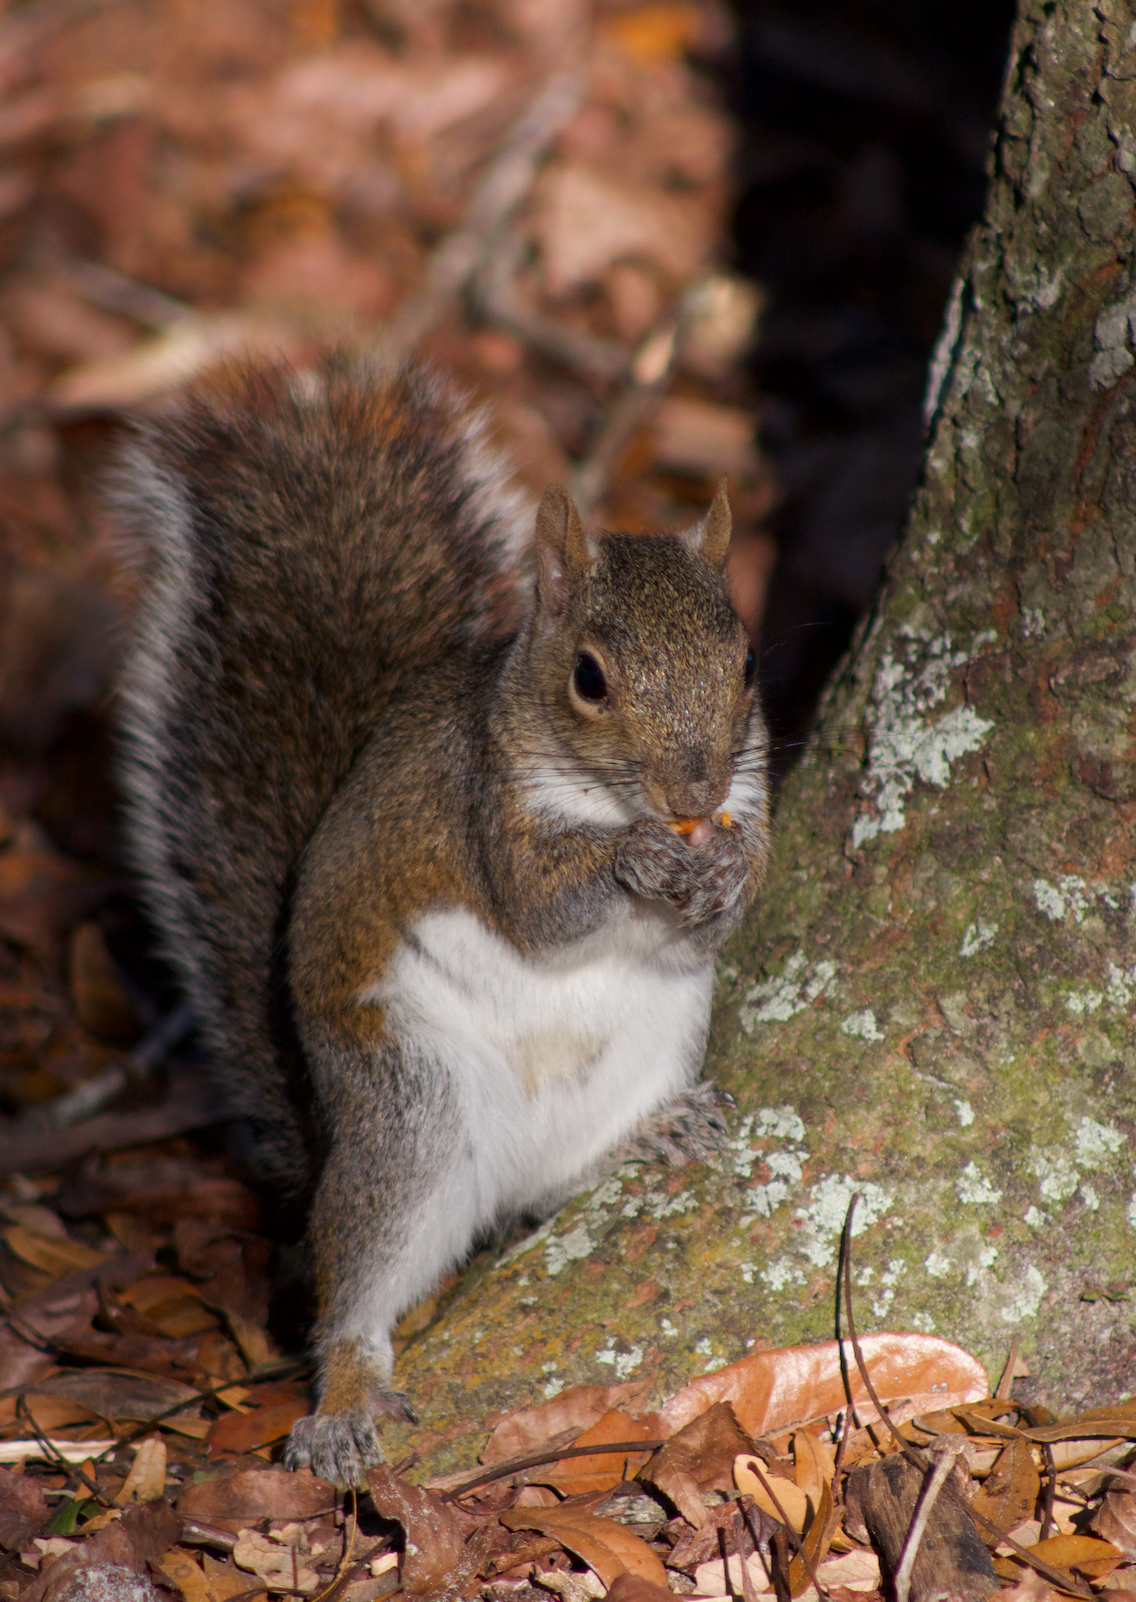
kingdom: Animalia
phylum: Chordata
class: Mammalia
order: Rodentia
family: Sciuridae
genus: Sciurus
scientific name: Sciurus carolinensis
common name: Eastern gray squirrel
